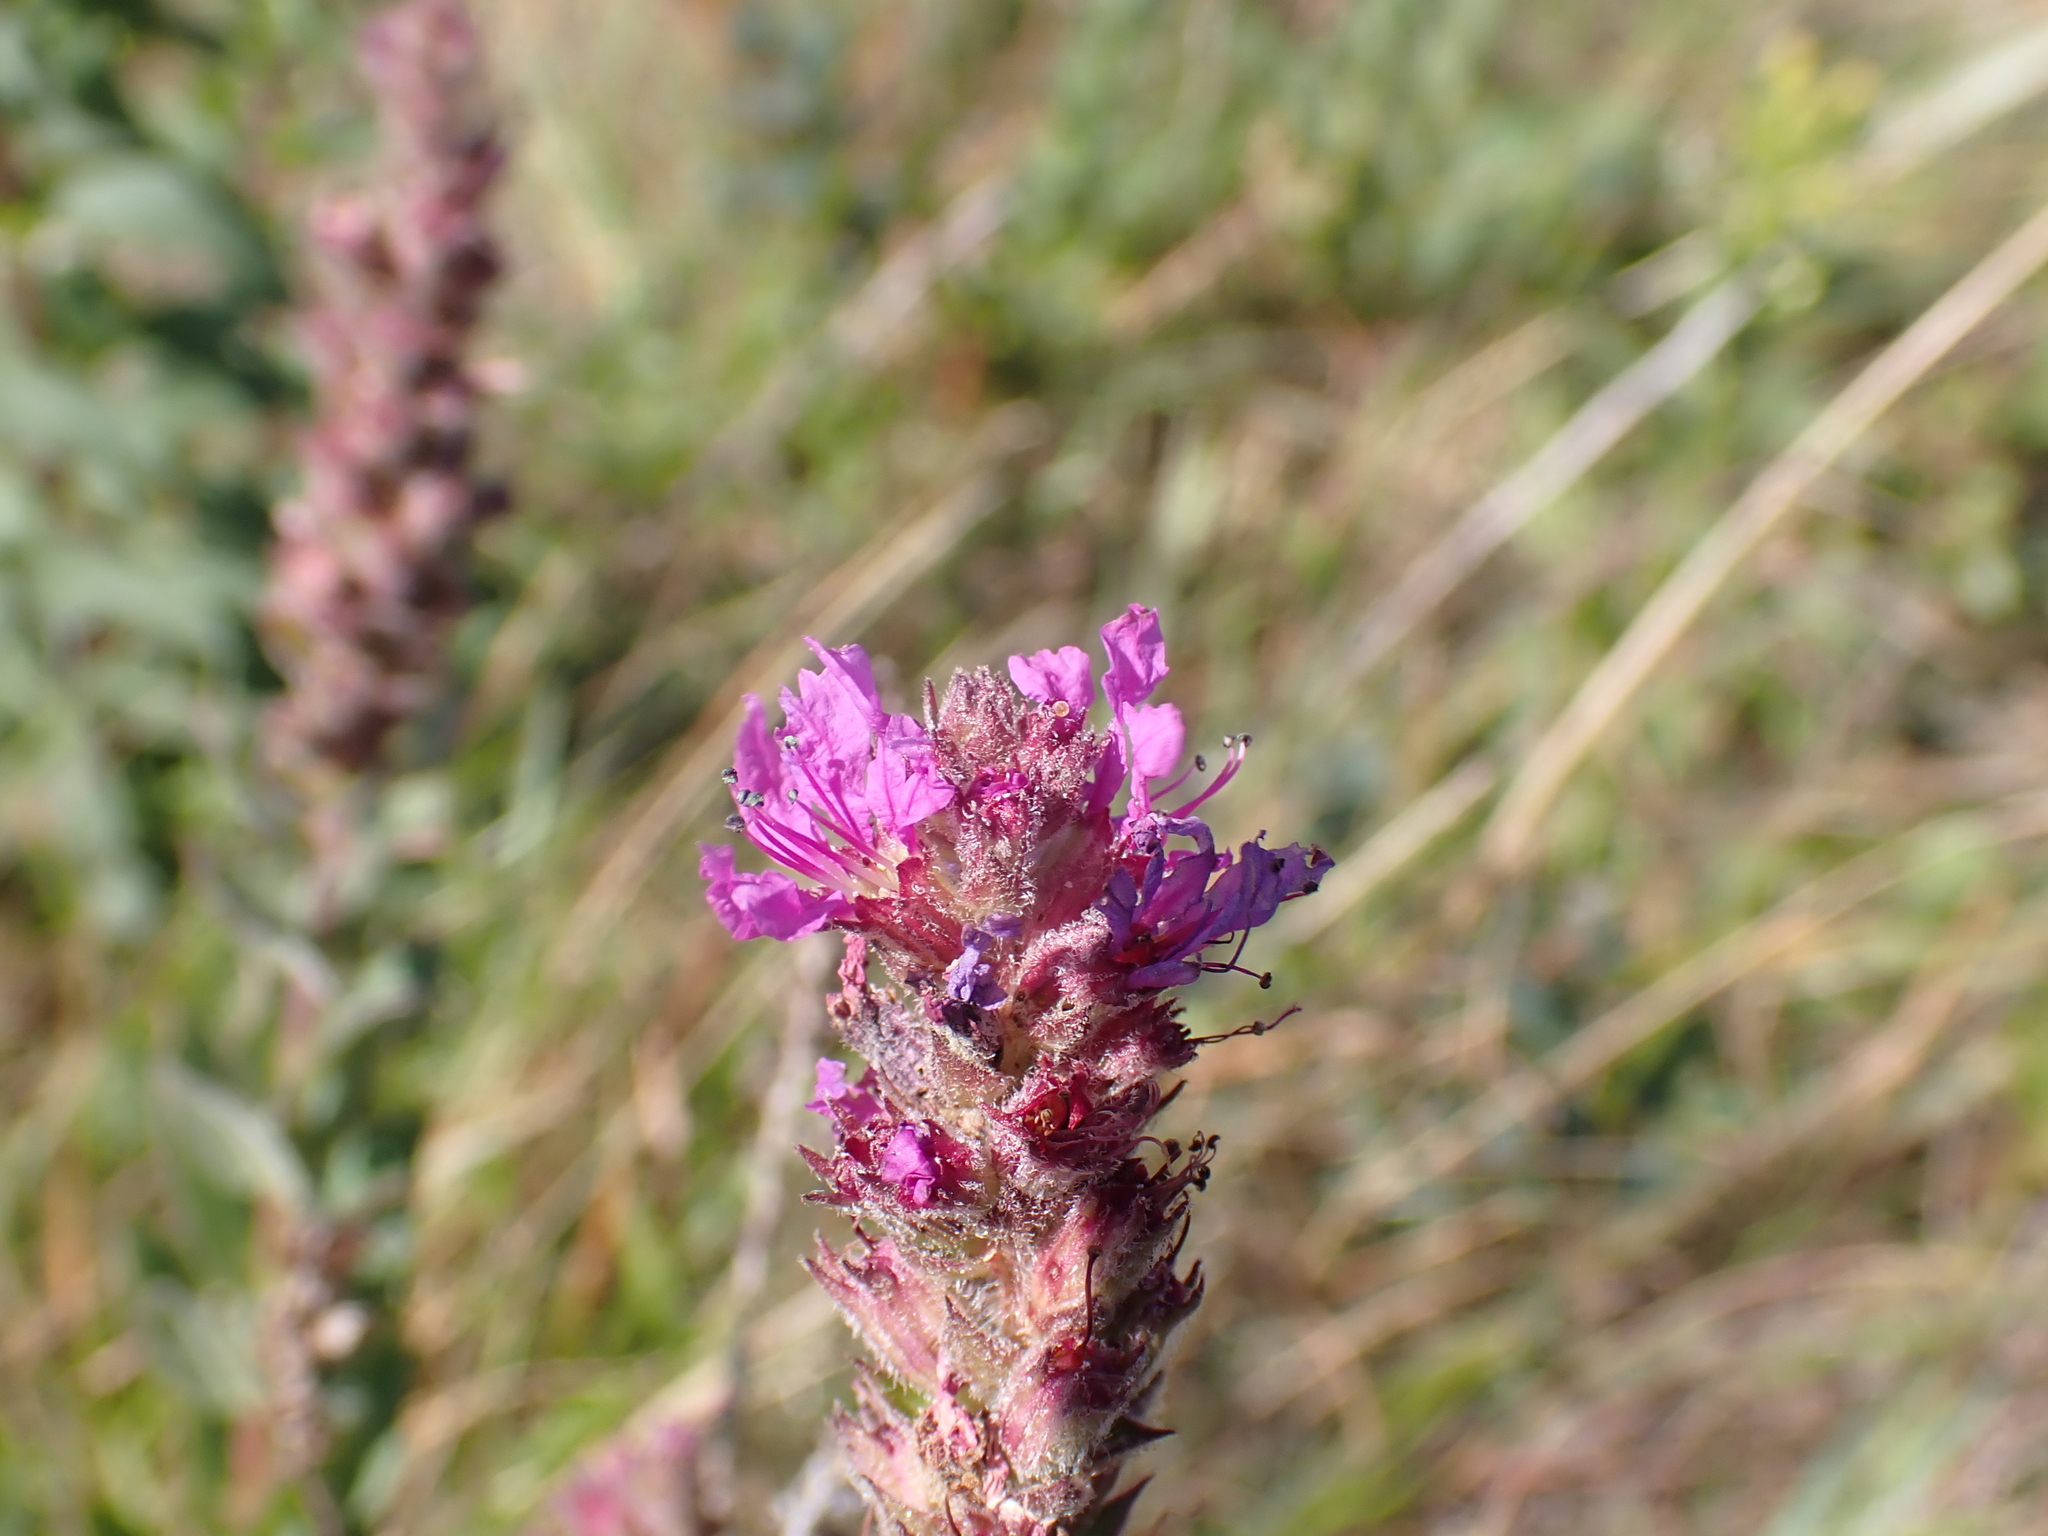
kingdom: Plantae
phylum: Tracheophyta
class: Magnoliopsida
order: Myrtales
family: Lythraceae
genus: Lythrum
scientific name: Lythrum salicaria
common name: Purple loosestrife
